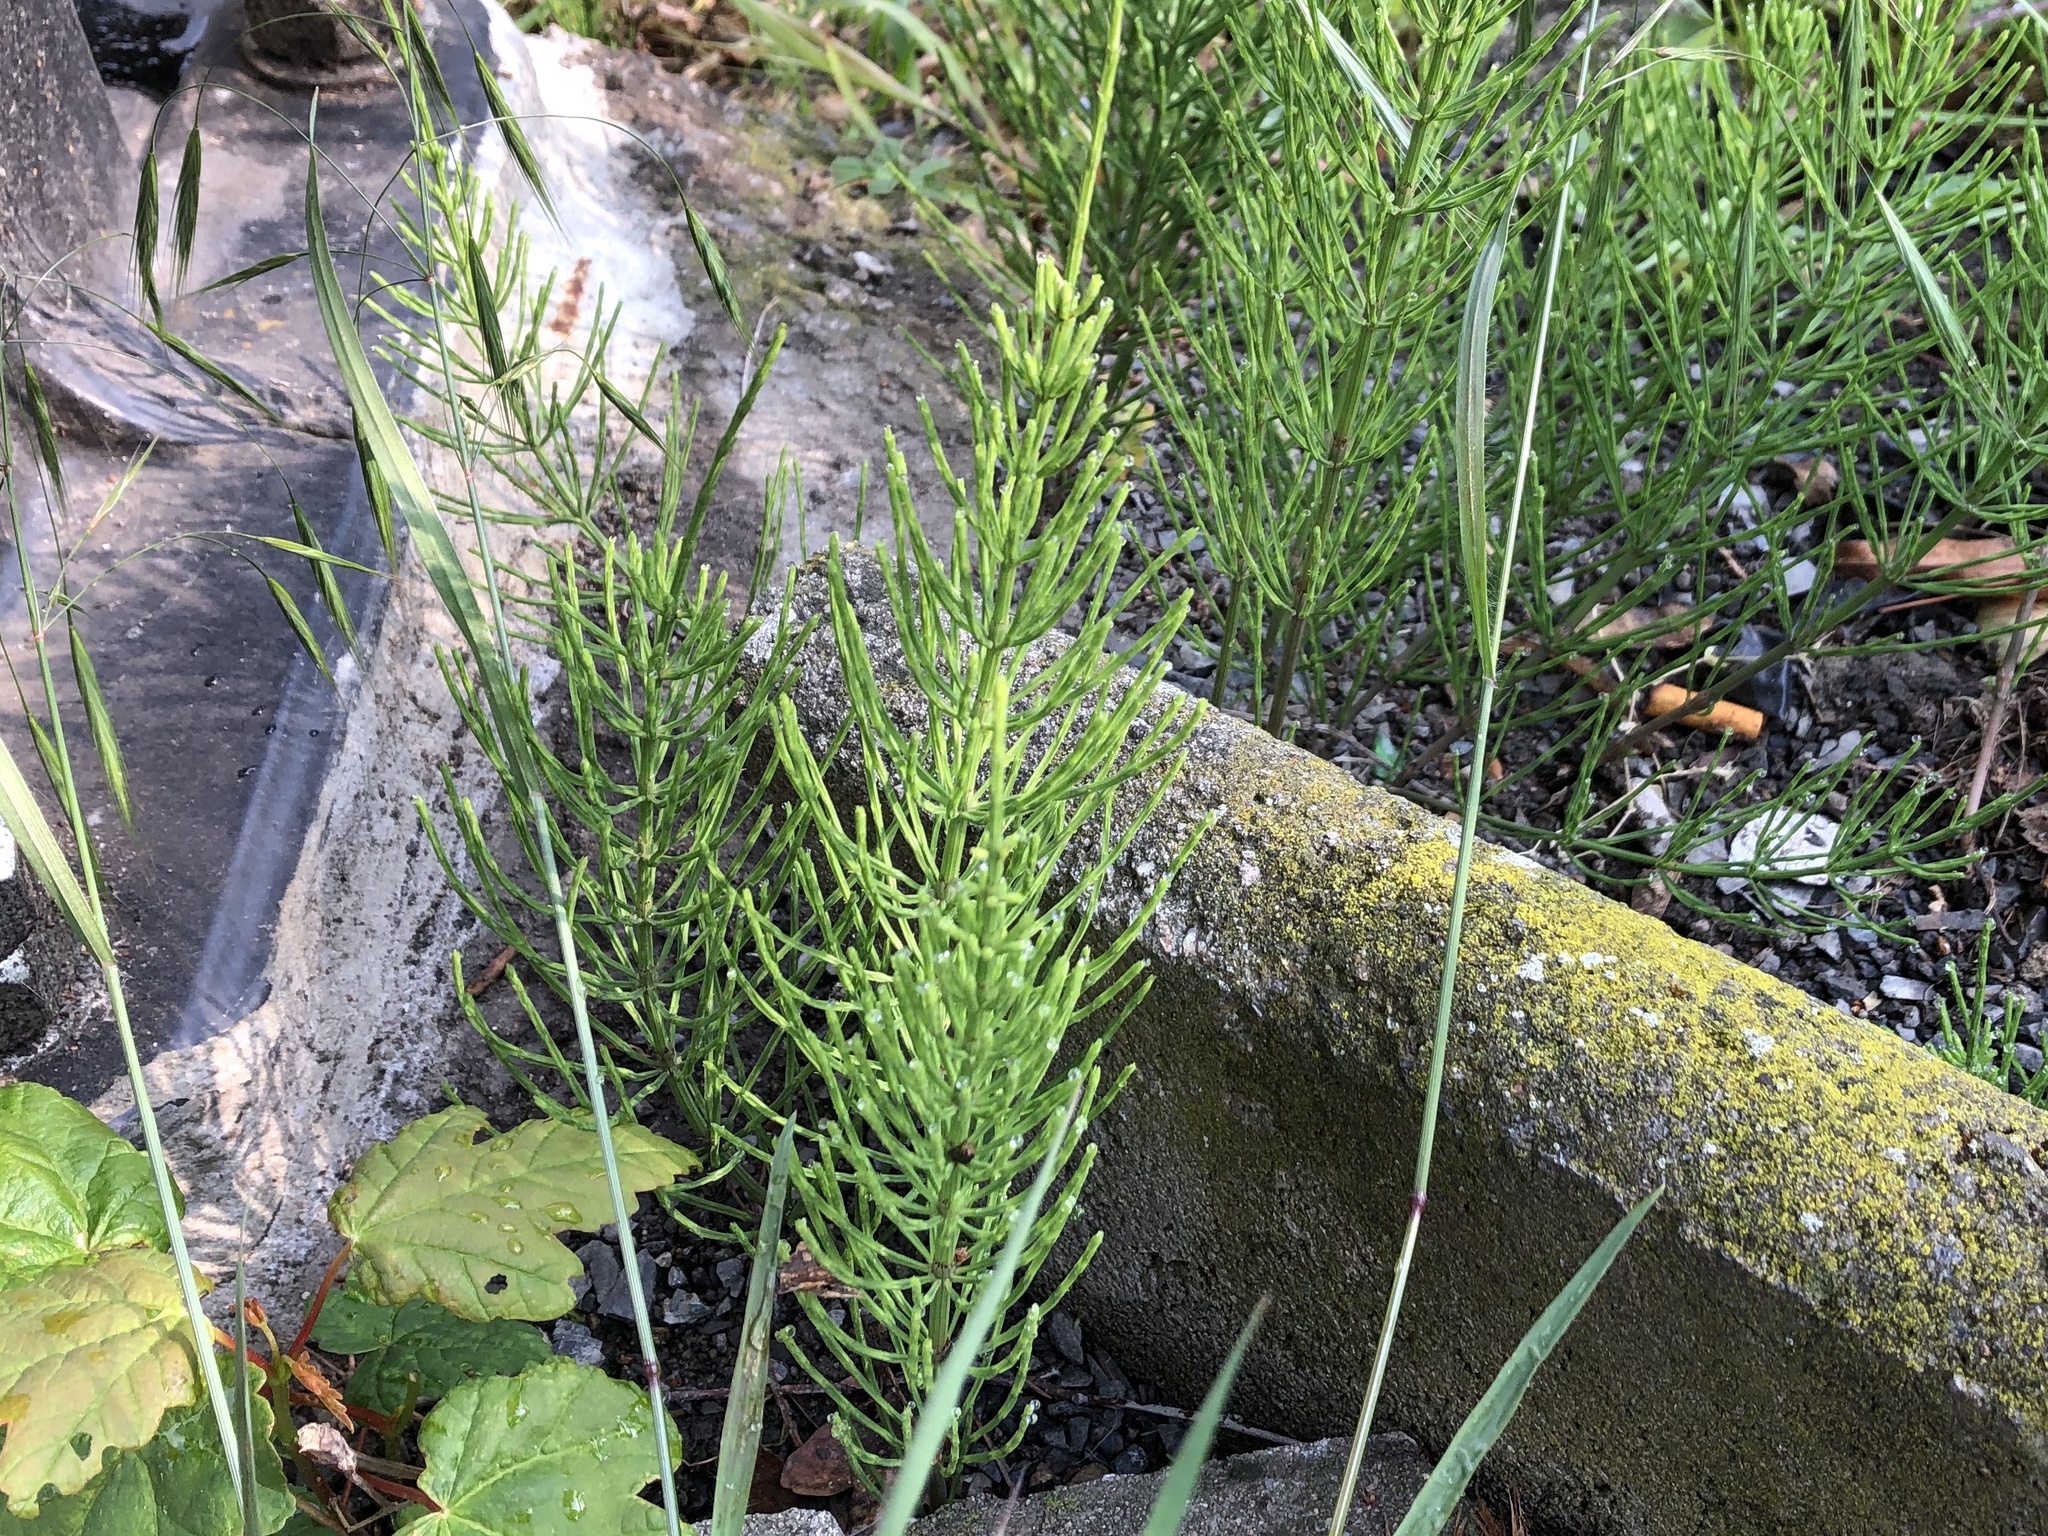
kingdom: Plantae
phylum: Tracheophyta
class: Polypodiopsida
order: Equisetales
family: Equisetaceae
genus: Equisetum
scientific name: Equisetum arvense
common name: Field horsetail
